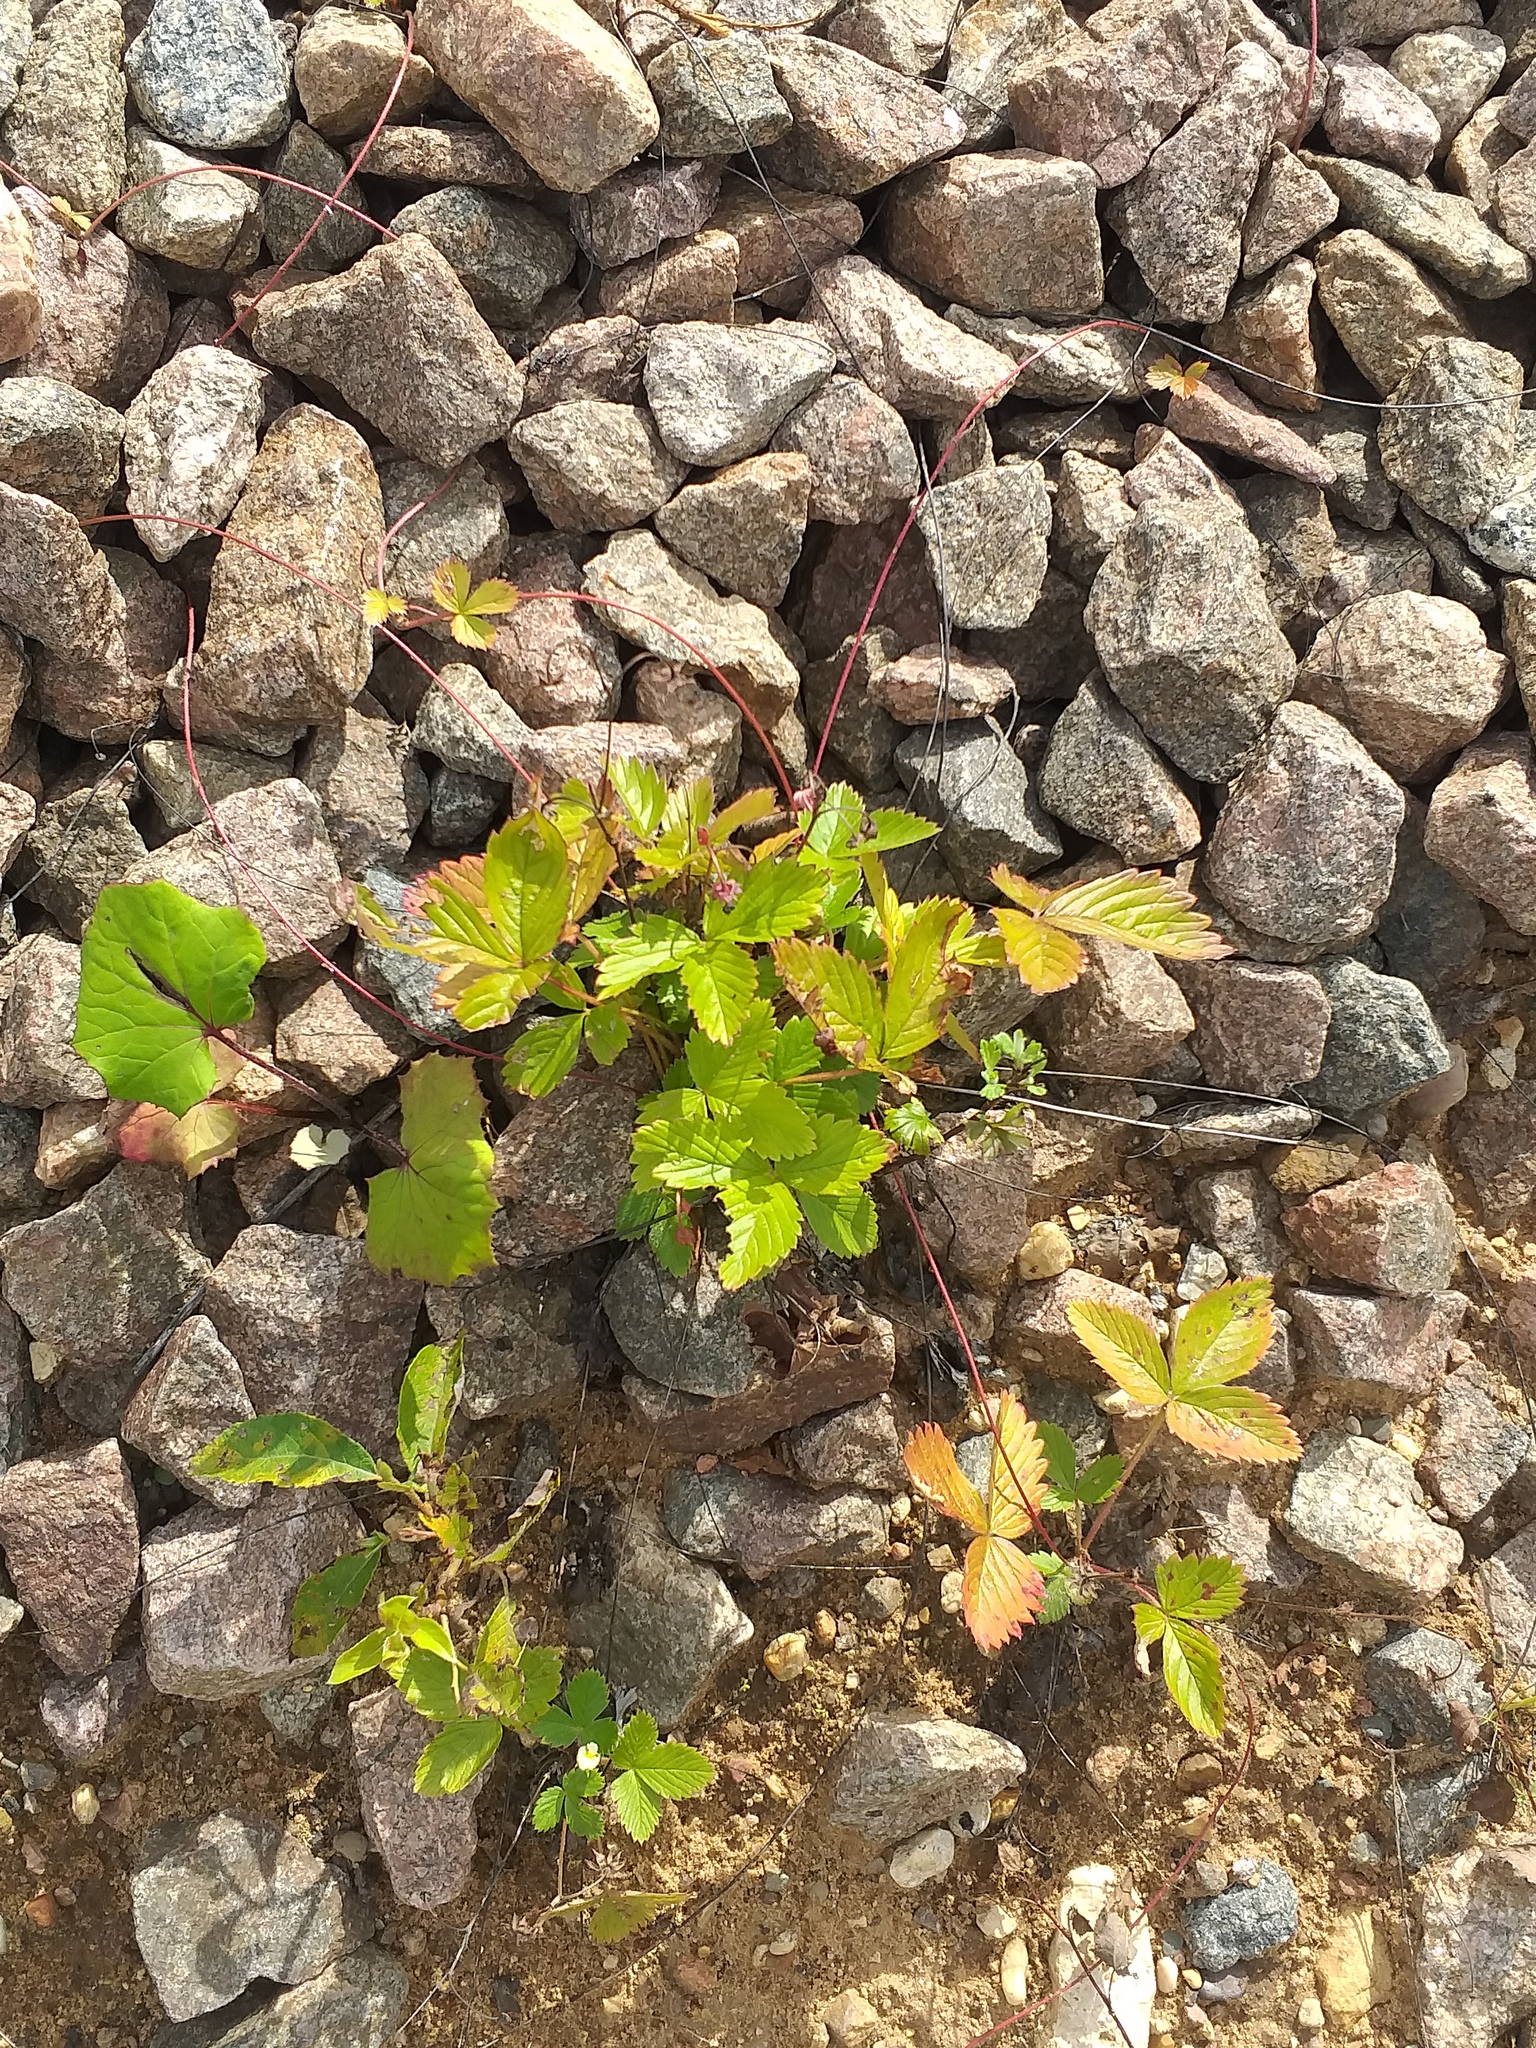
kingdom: Plantae
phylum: Tracheophyta
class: Magnoliopsida
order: Rosales
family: Rosaceae
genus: Fragaria
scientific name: Fragaria vesca
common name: Wild strawberry
